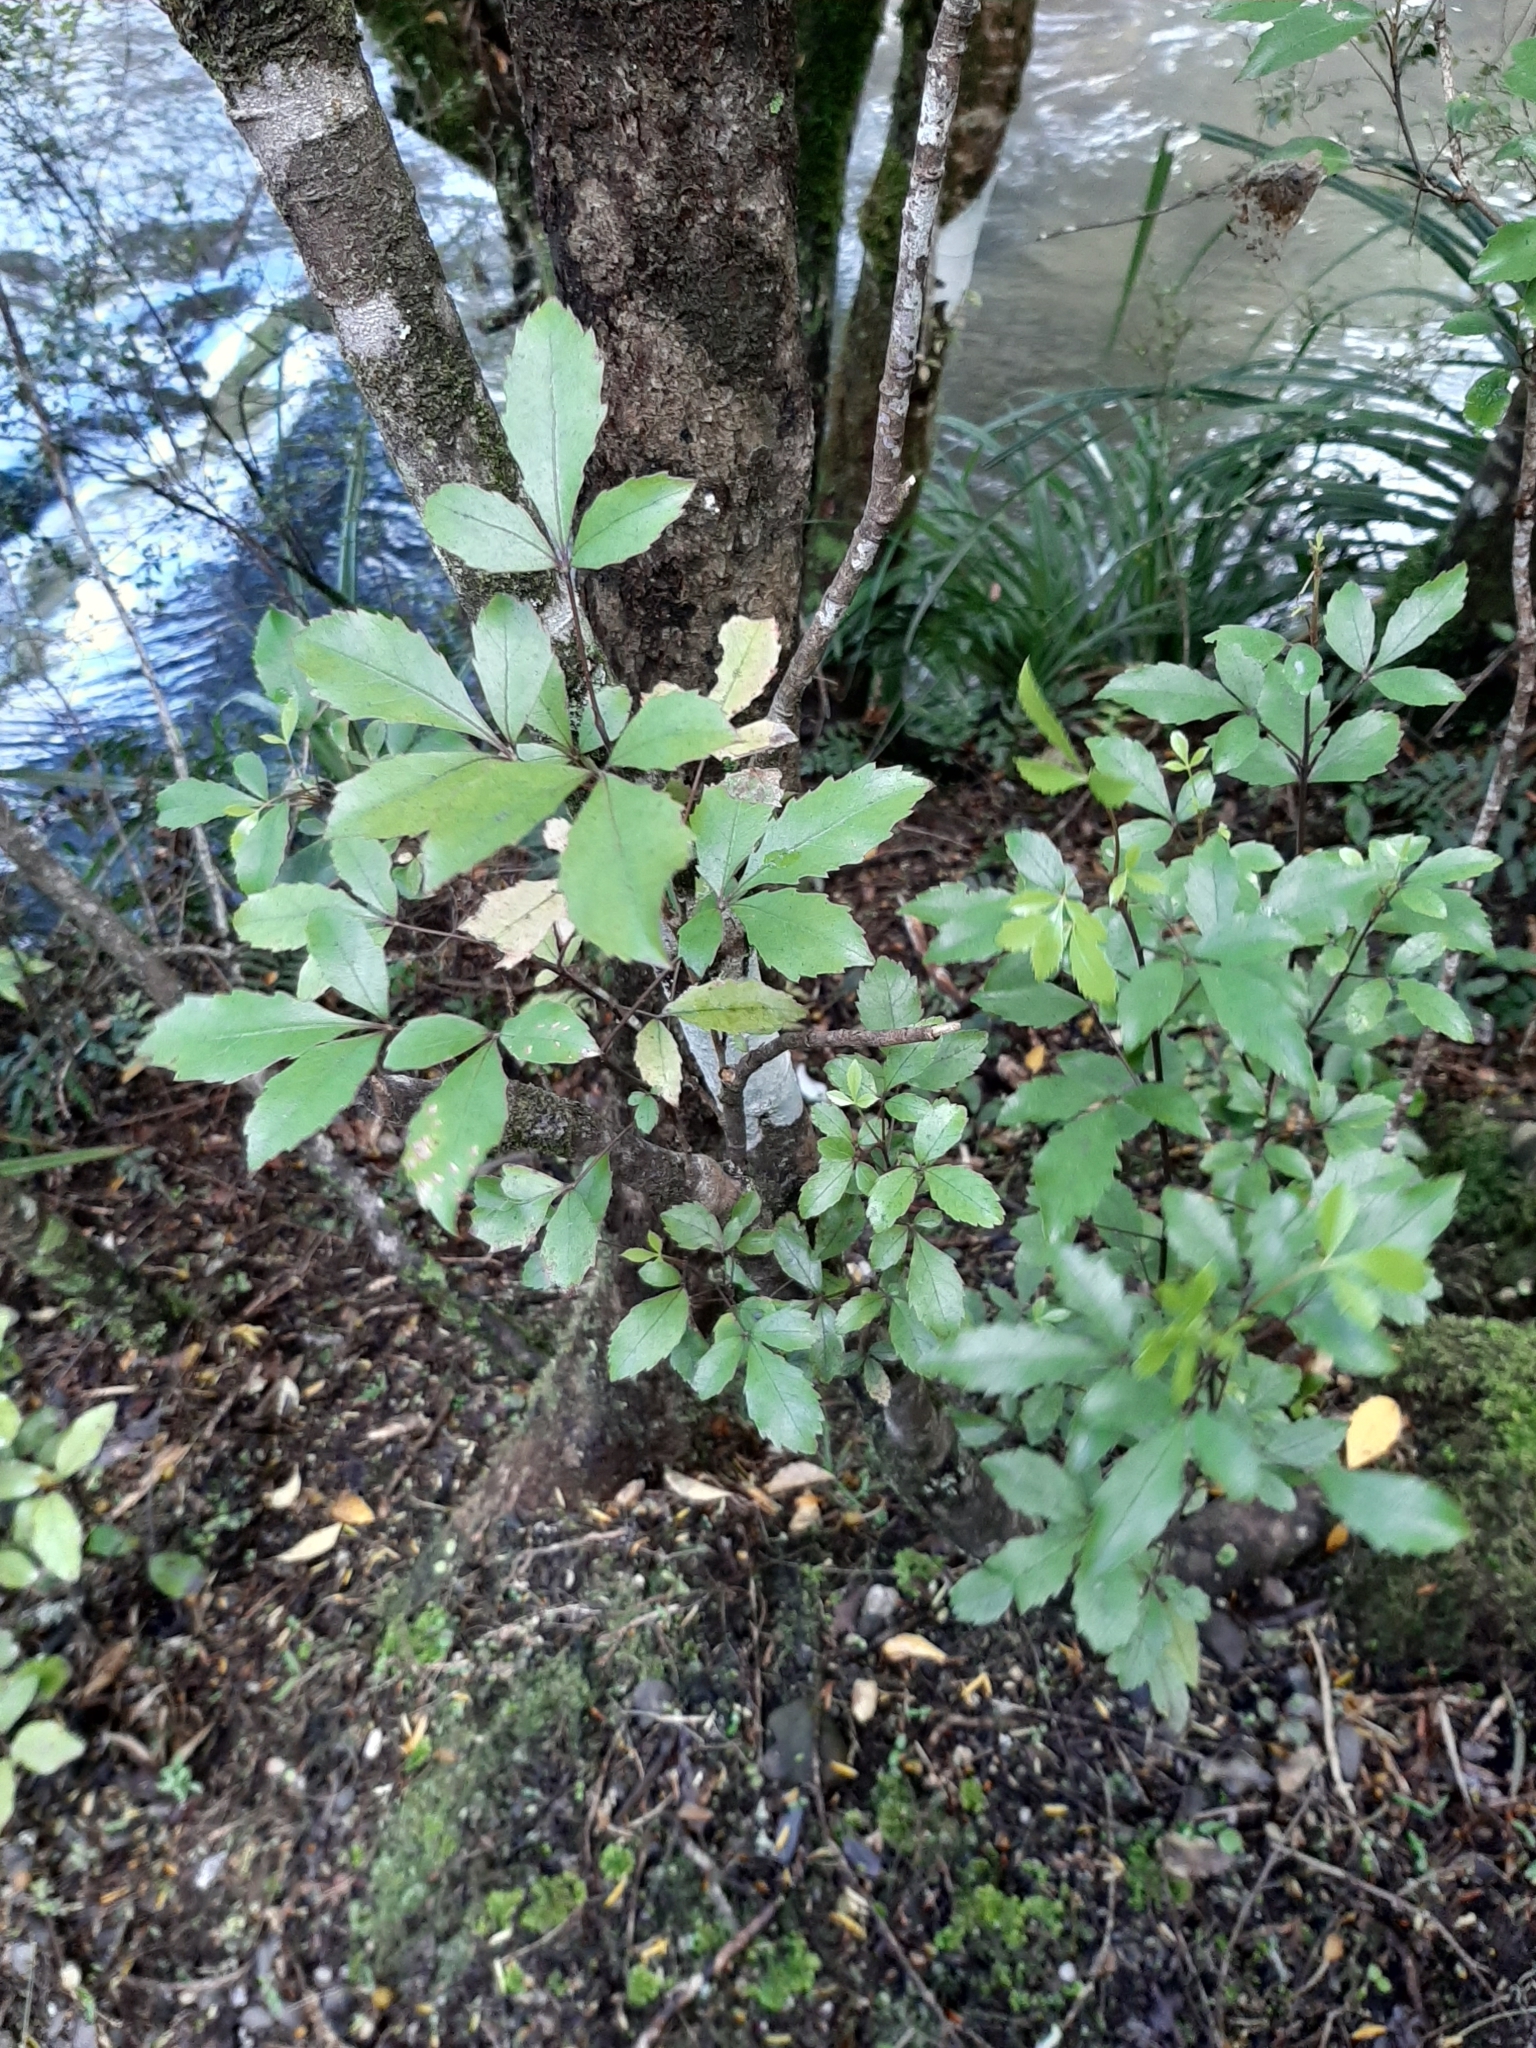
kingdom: Plantae
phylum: Tracheophyta
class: Magnoliopsida
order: Apiales
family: Araliaceae
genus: Raukaua
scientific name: Raukaua simplex
